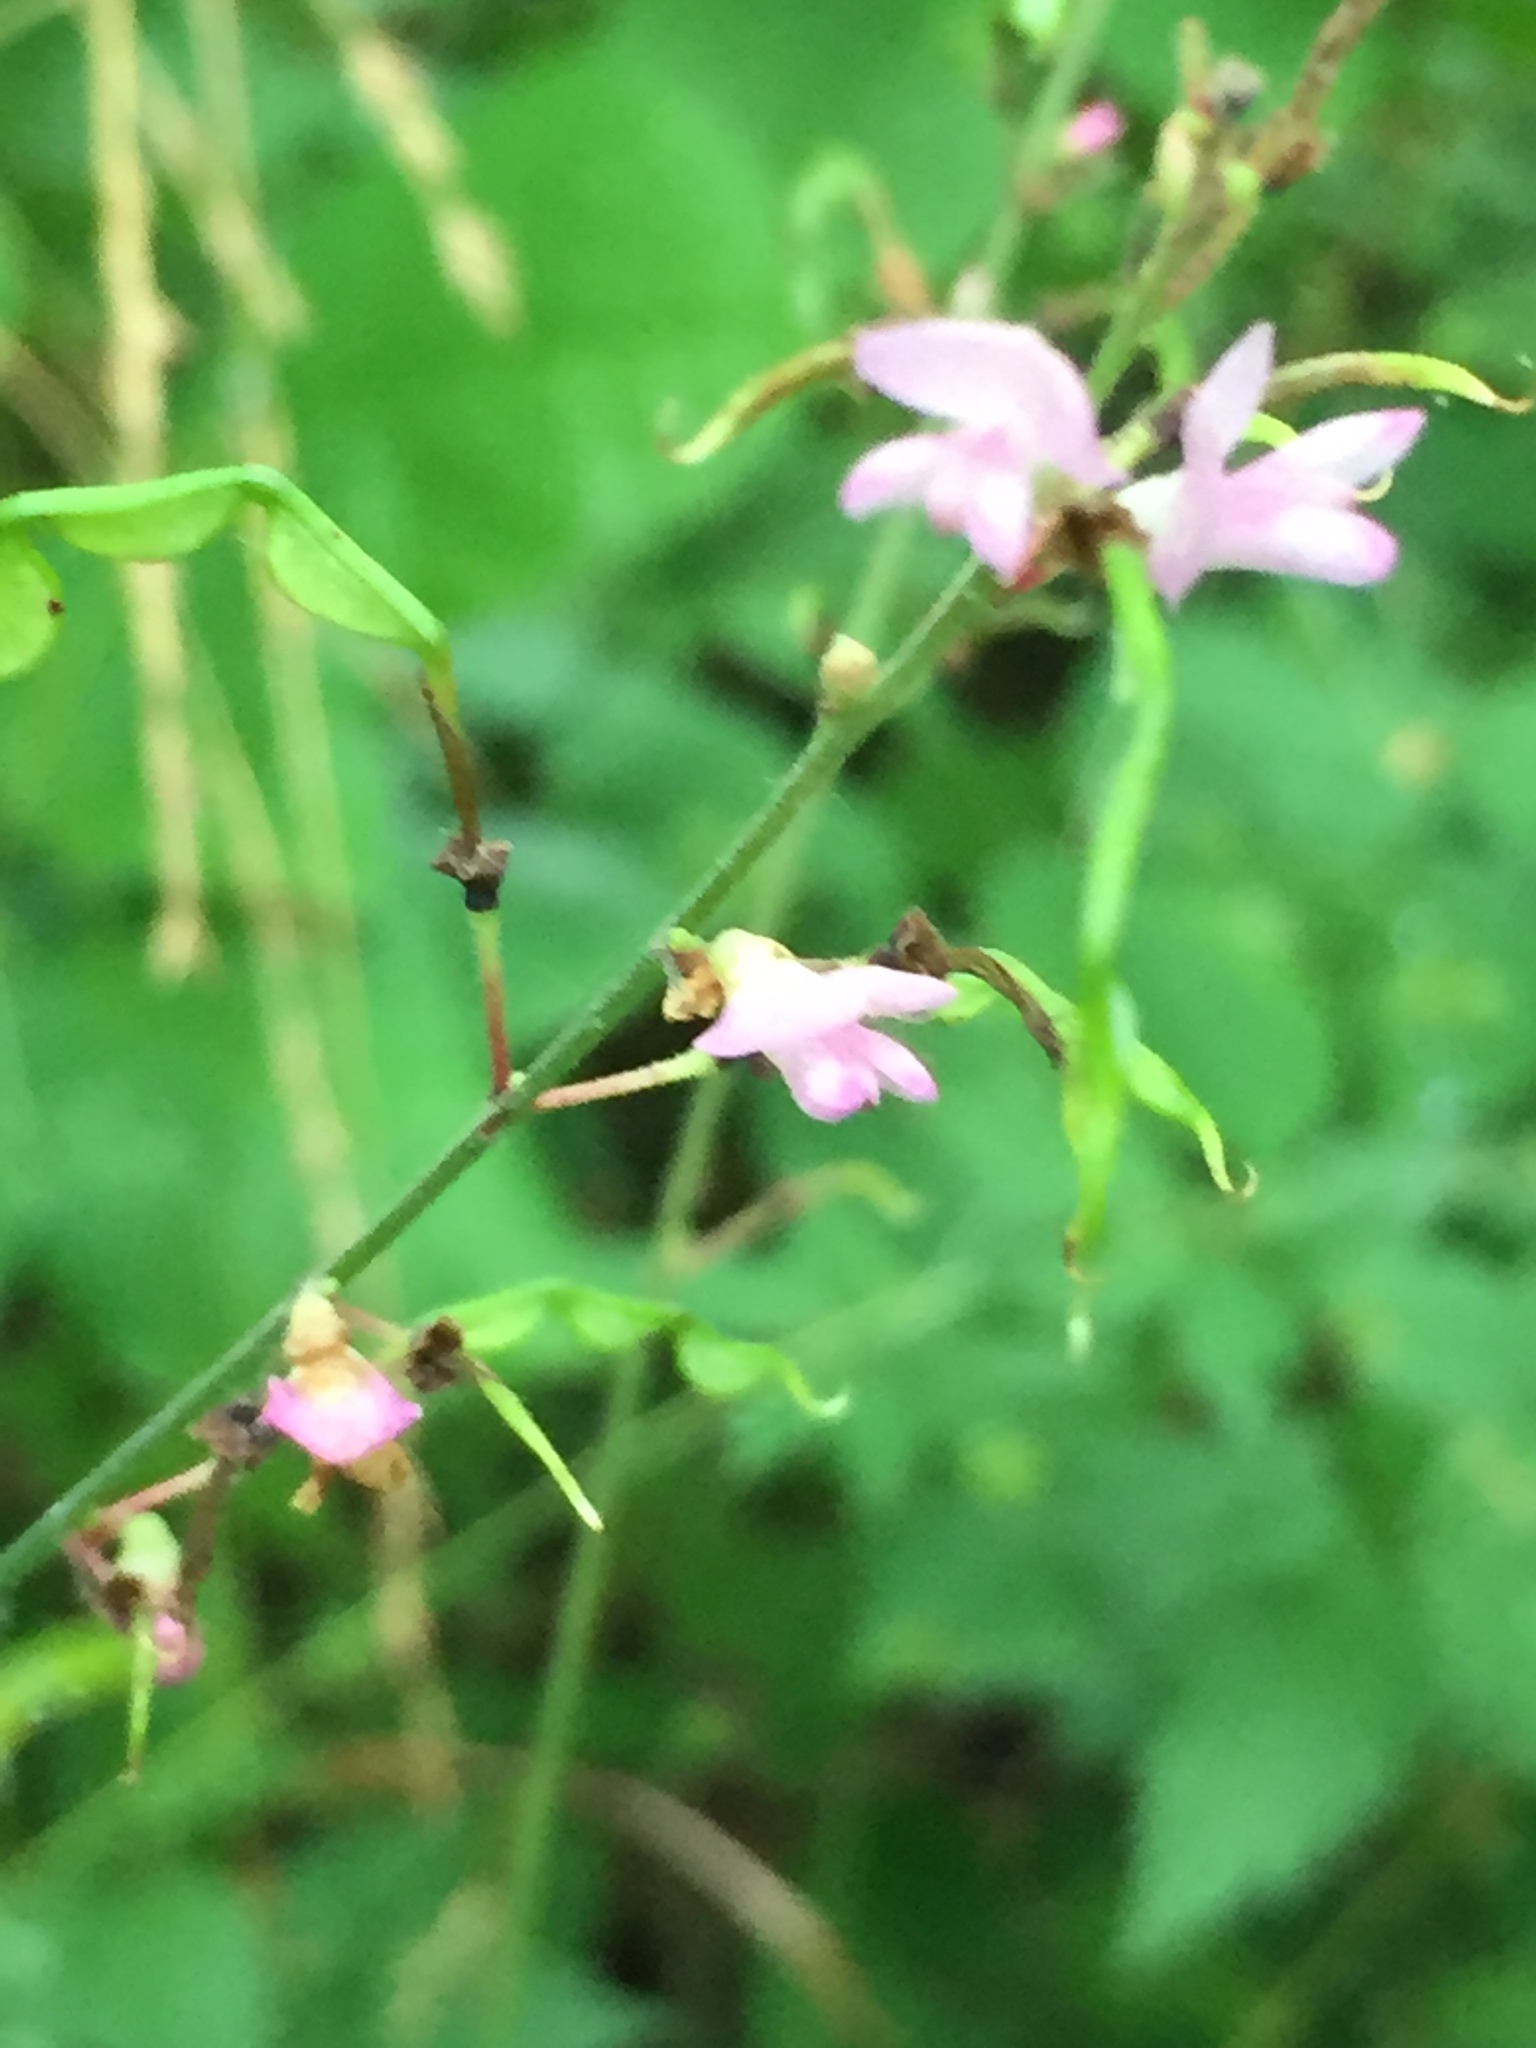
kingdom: Plantae
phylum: Tracheophyta
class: Magnoliopsida
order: Fabales
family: Fabaceae
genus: Hylodesmum
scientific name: Hylodesmum glutinosum
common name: Clustered-leaved tick-trefoil
